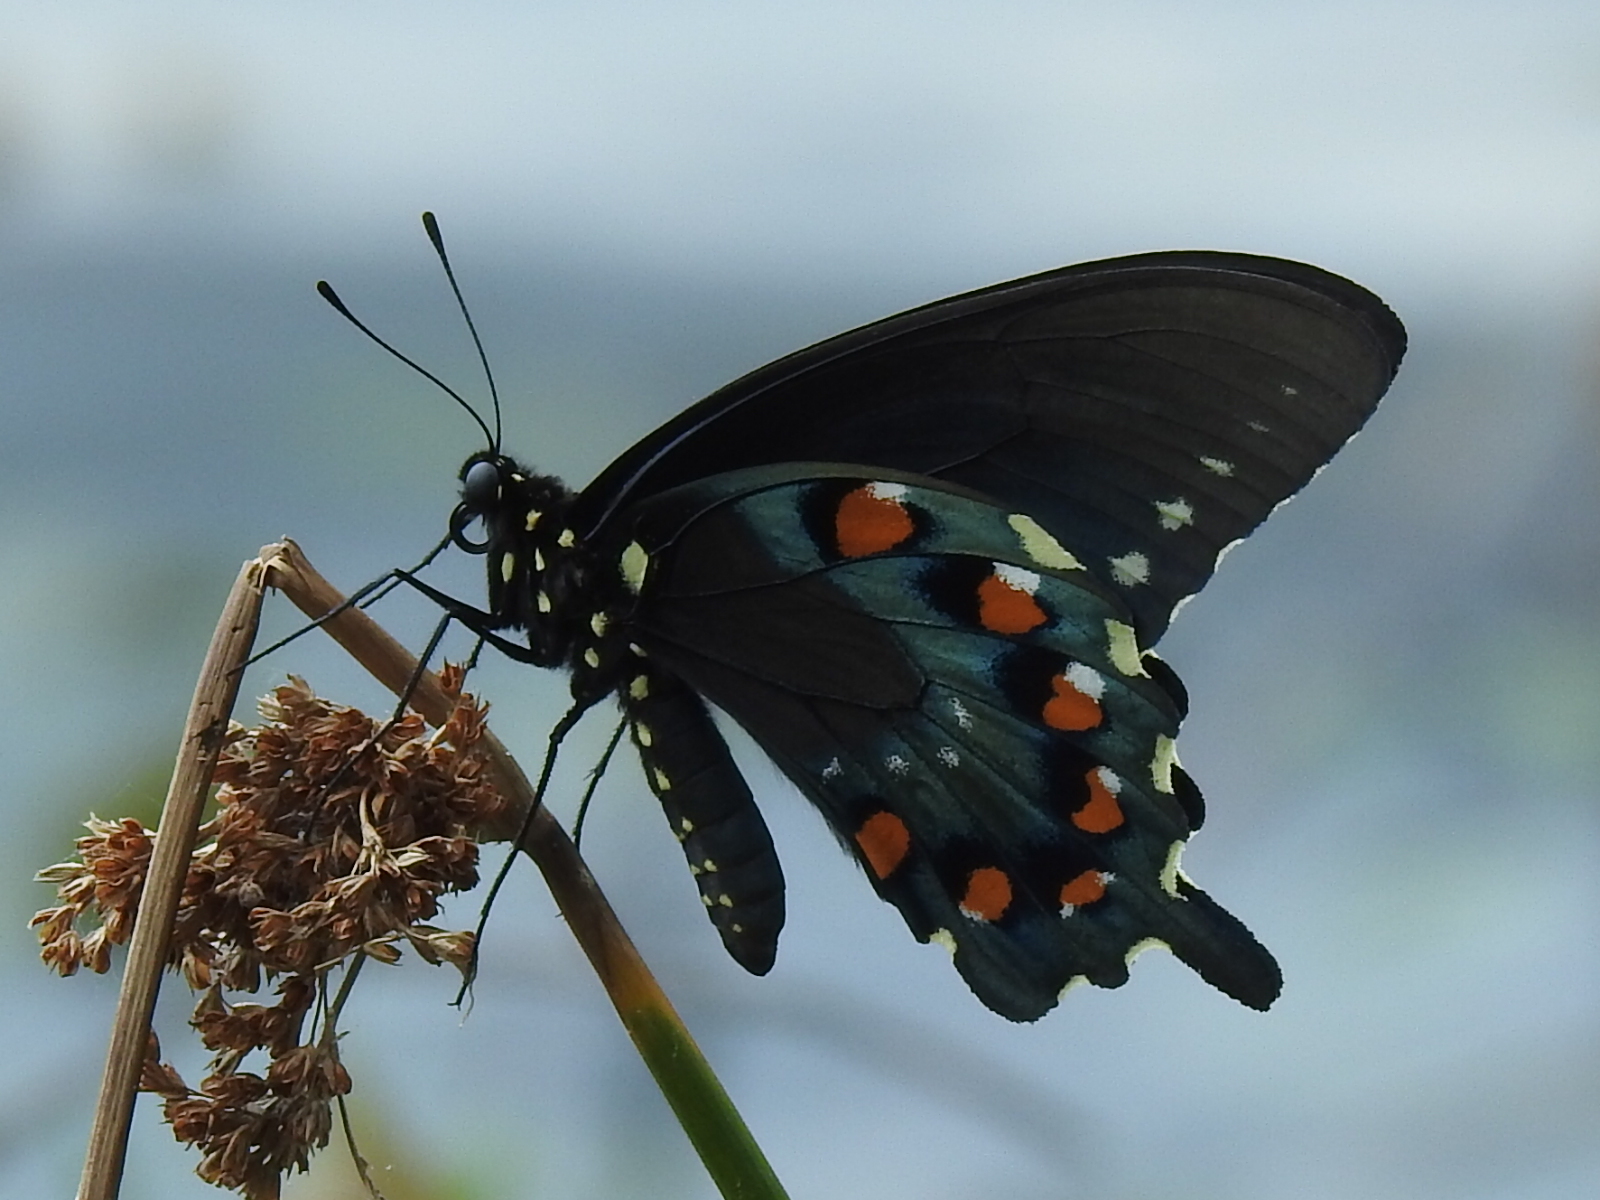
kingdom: Animalia
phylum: Arthropoda
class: Insecta
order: Lepidoptera
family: Papilionidae
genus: Battus
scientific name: Battus philenor
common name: Pipevine swallowtail
